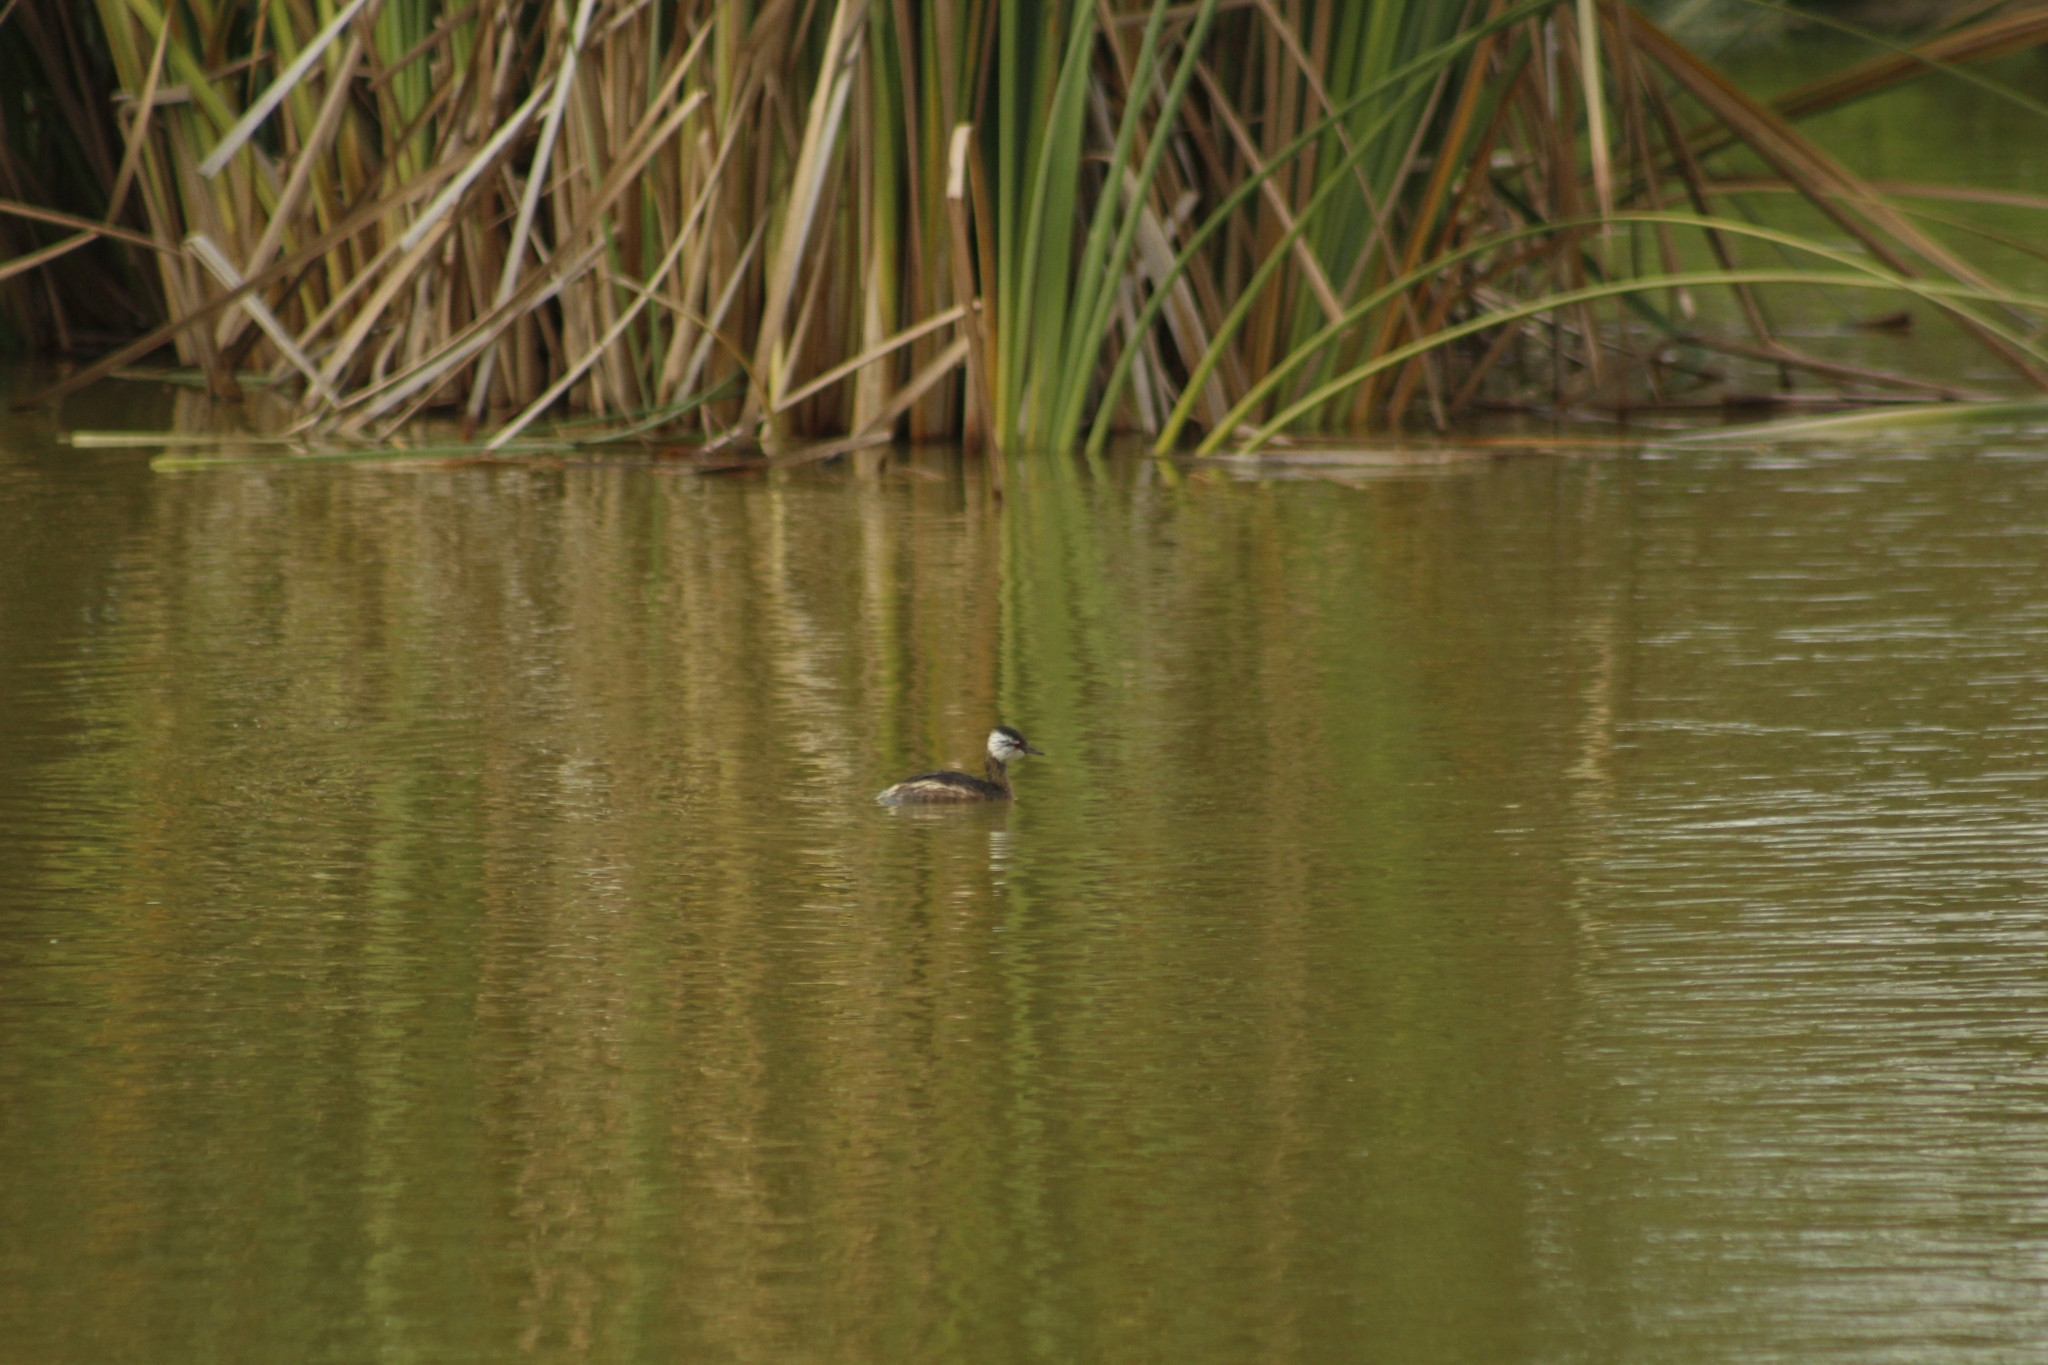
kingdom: Animalia
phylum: Chordata
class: Aves
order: Podicipediformes
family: Podicipedidae
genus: Rollandia
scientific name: Rollandia rolland
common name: White-tufted grebe
